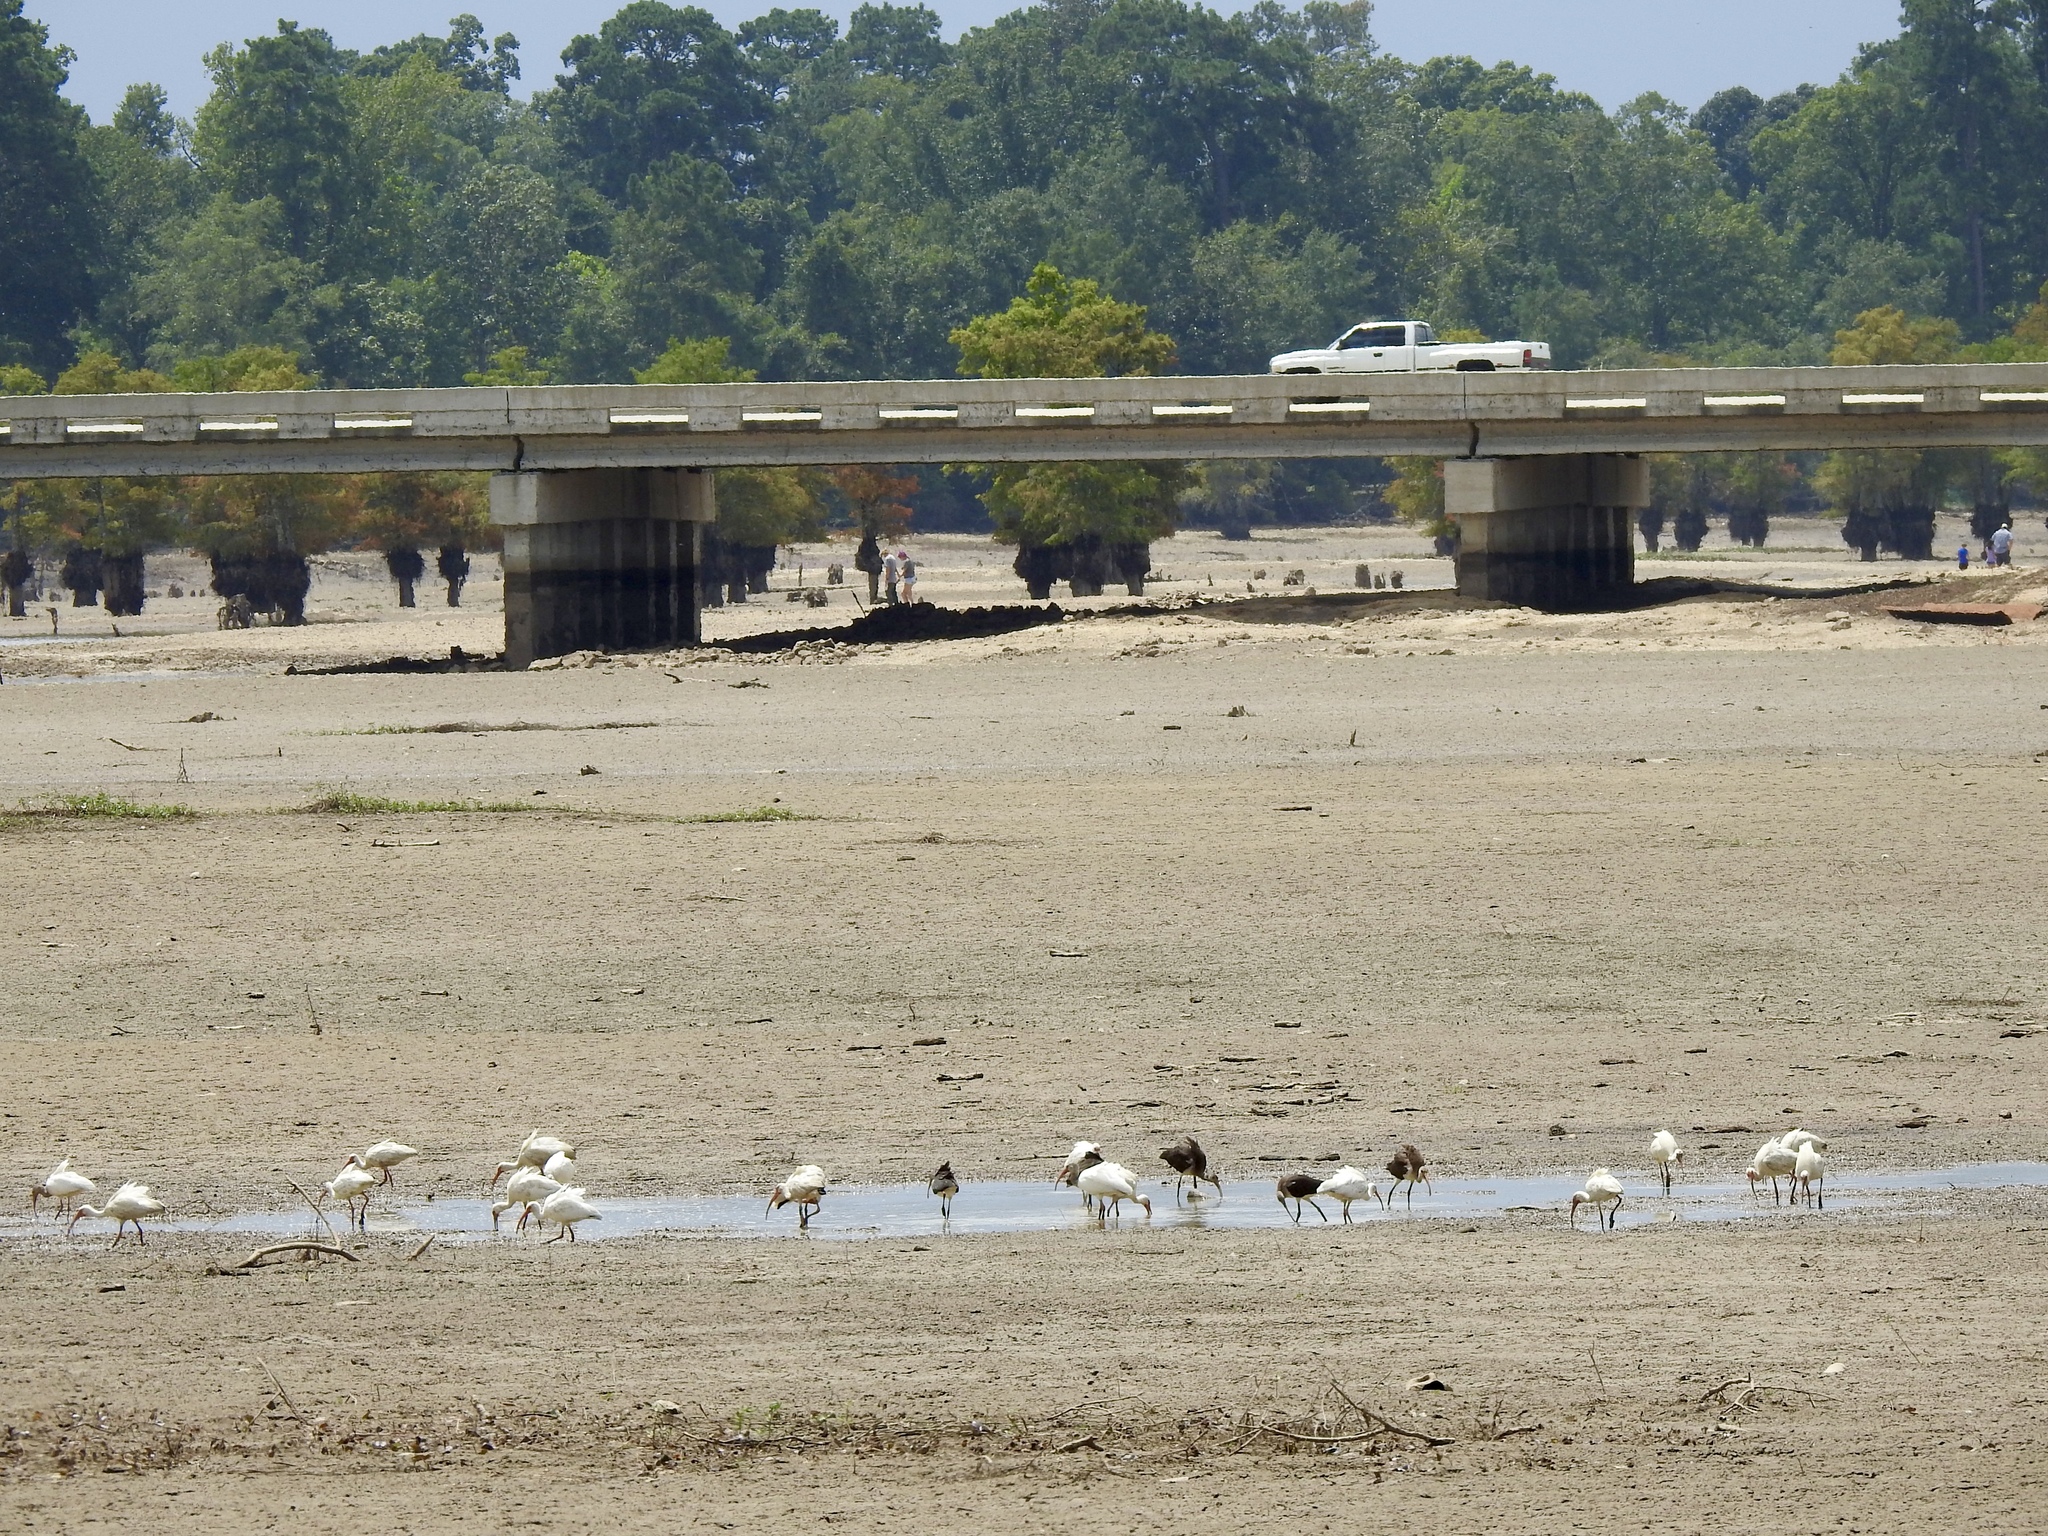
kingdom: Animalia
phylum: Chordata
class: Aves
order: Pelecaniformes
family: Threskiornithidae
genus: Eudocimus
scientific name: Eudocimus albus
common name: White ibis
